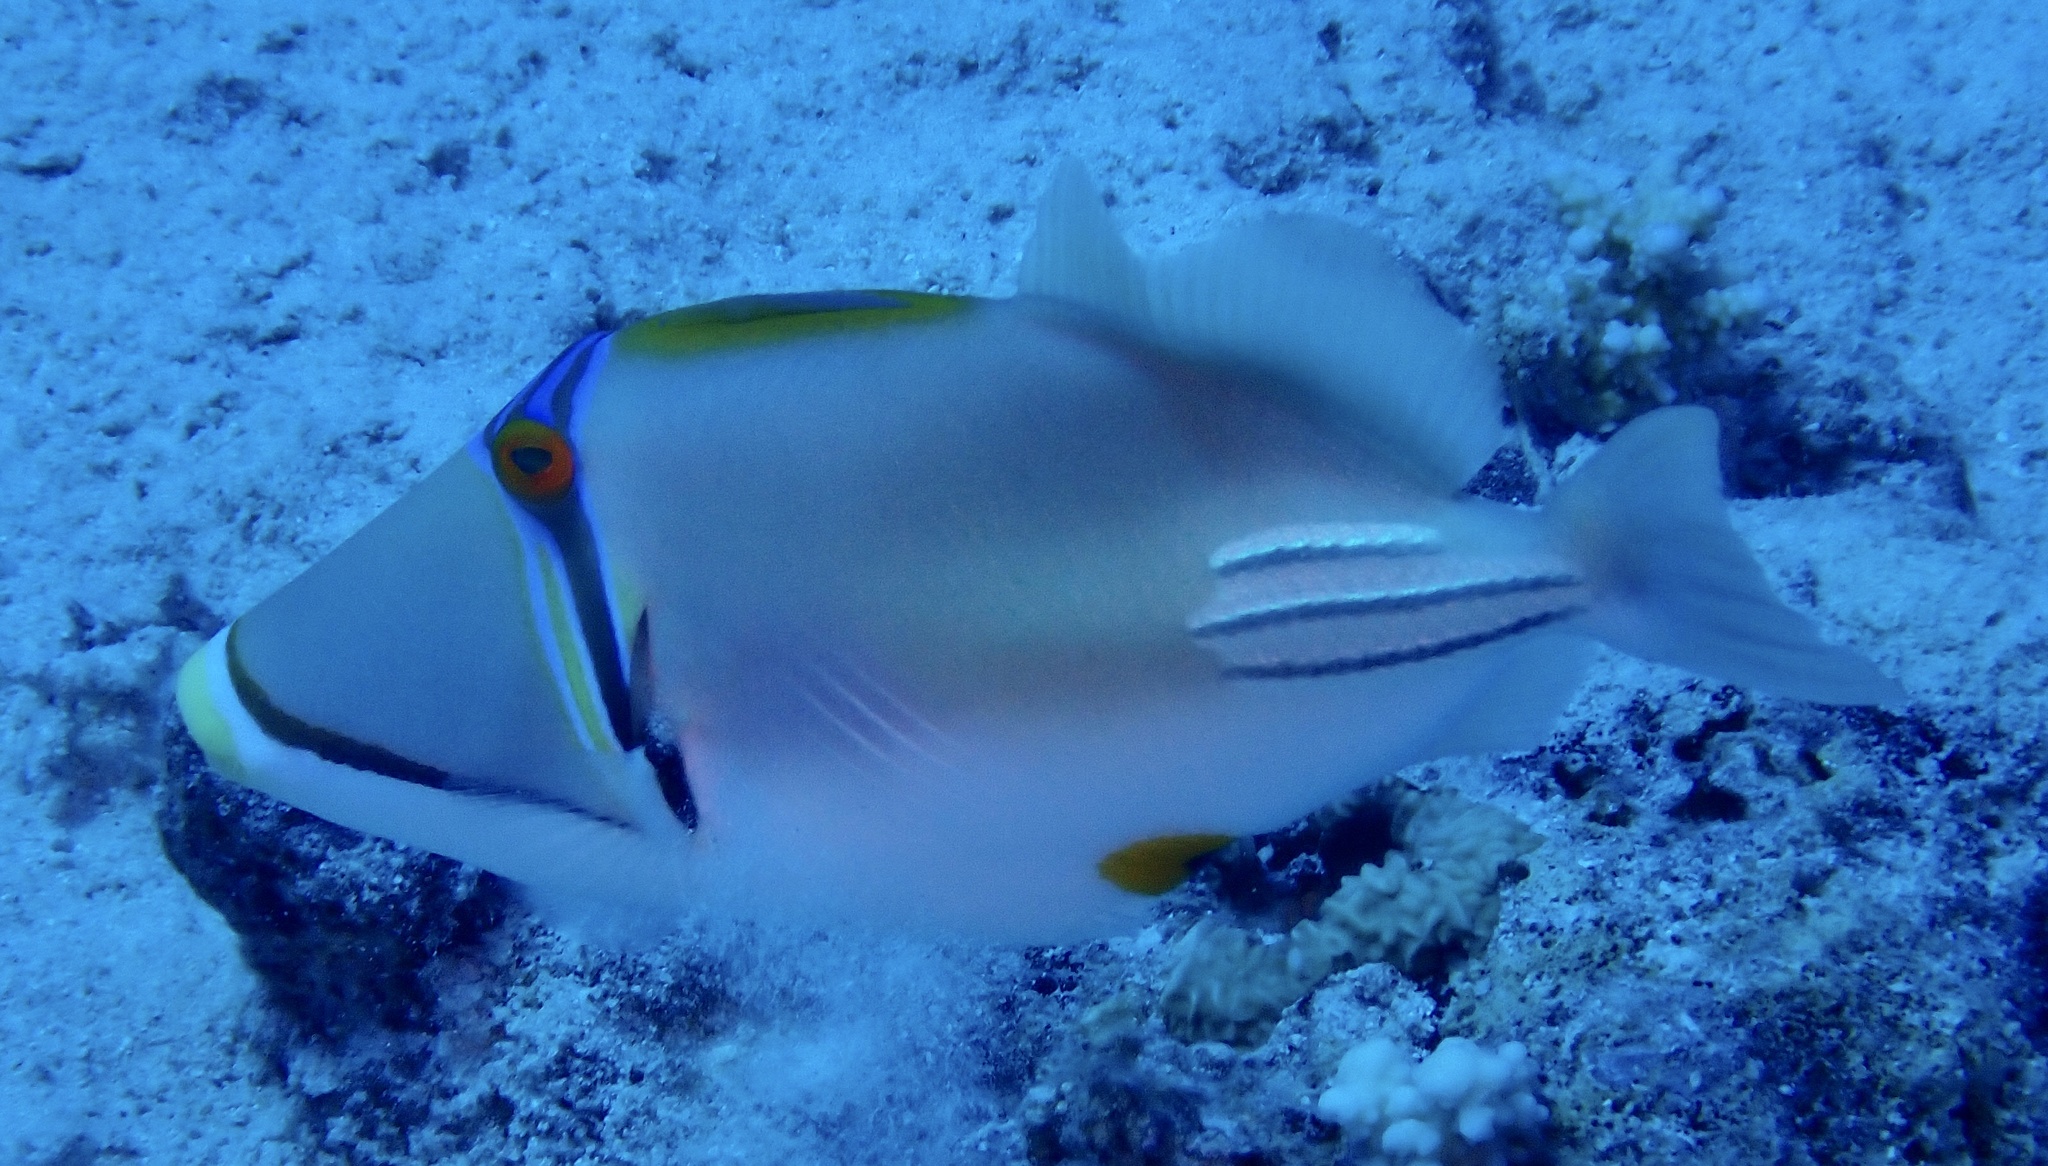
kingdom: Animalia
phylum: Chordata
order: Tetraodontiformes
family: Balistidae
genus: Rhinecanthus
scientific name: Rhinecanthus assasi
